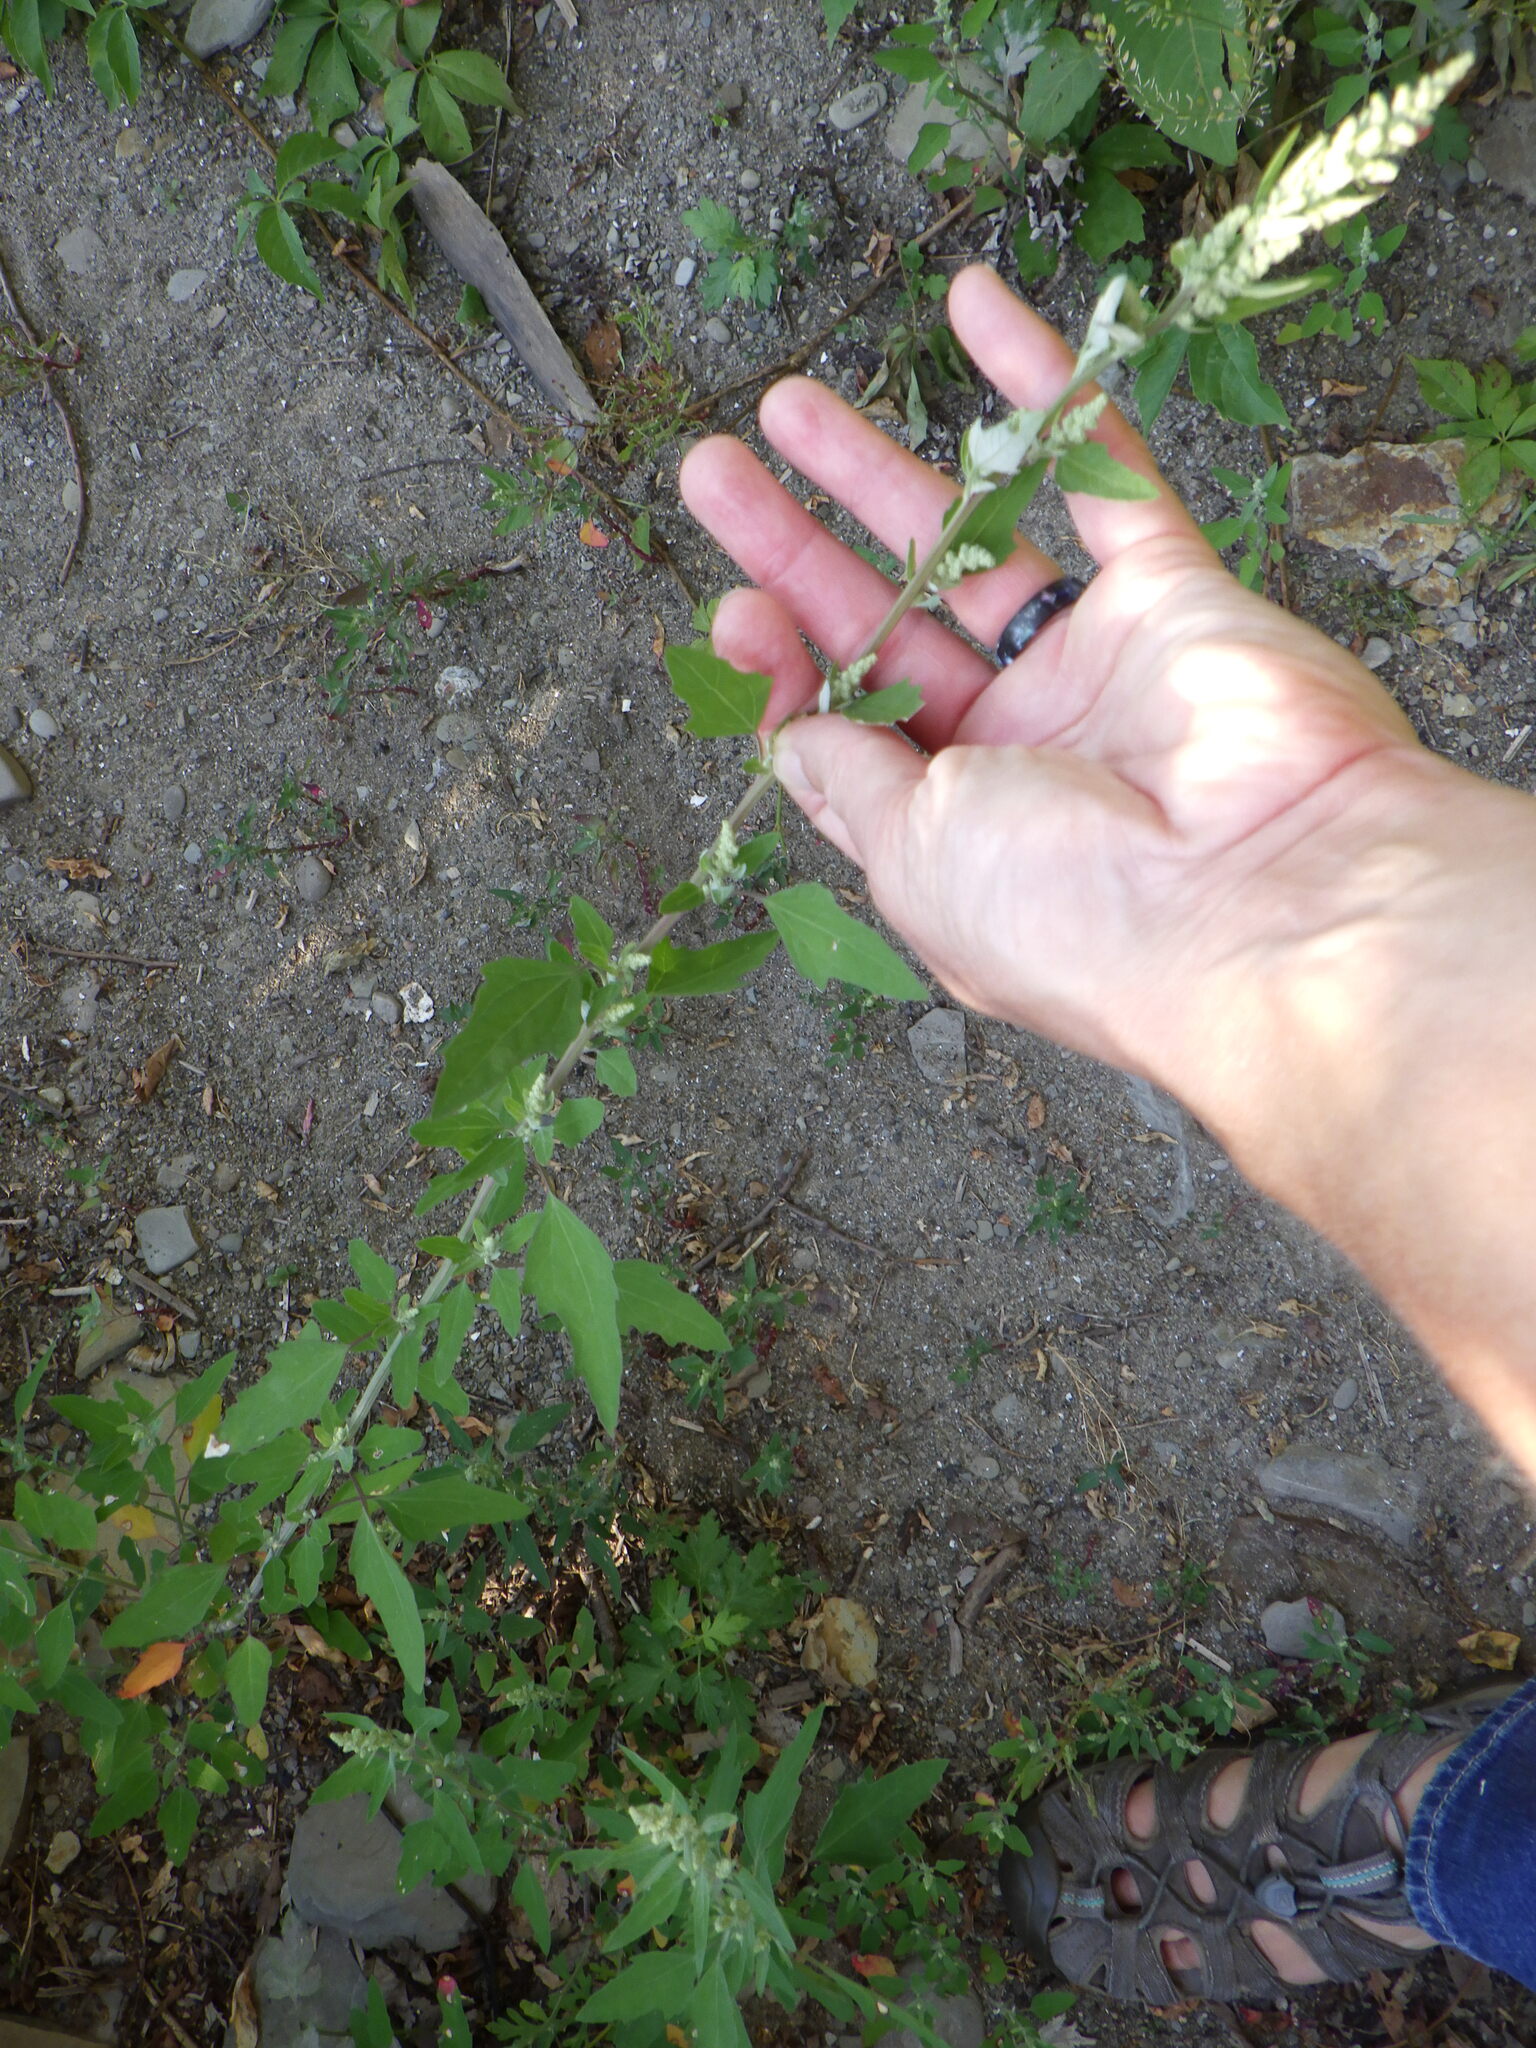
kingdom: Plantae
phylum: Tracheophyta
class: Magnoliopsida
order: Caryophyllales
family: Amaranthaceae
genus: Chenopodium
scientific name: Chenopodium album
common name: Fat-hen
